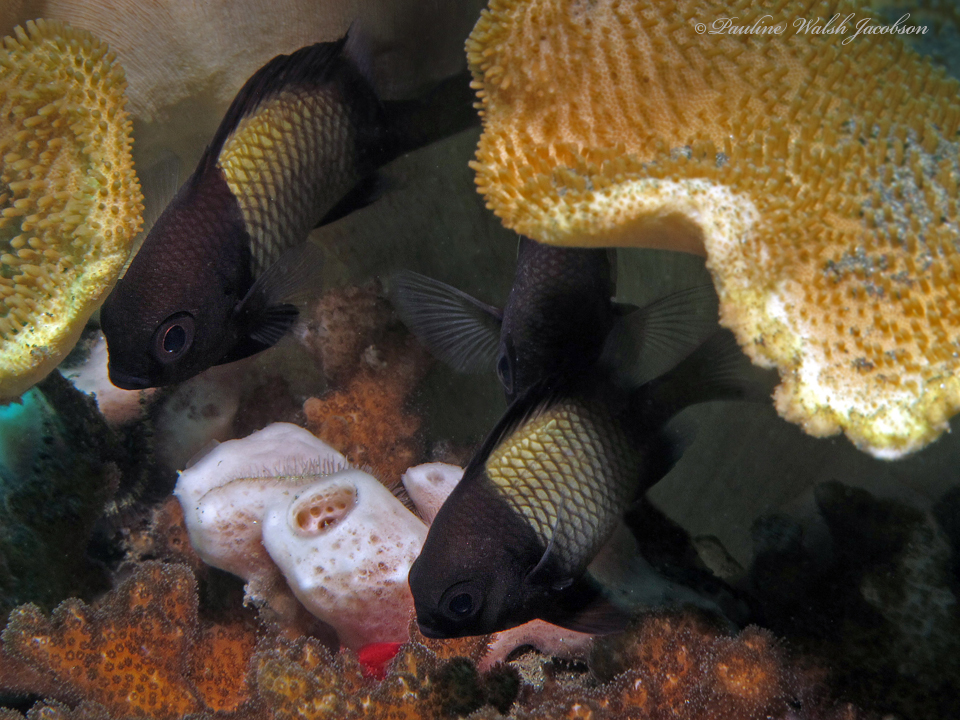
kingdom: Animalia
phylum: Chordata
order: Perciformes
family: Pomacentridae
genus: Dascyllus
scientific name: Dascyllus reticulatus
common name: Reticulated dascyllus
